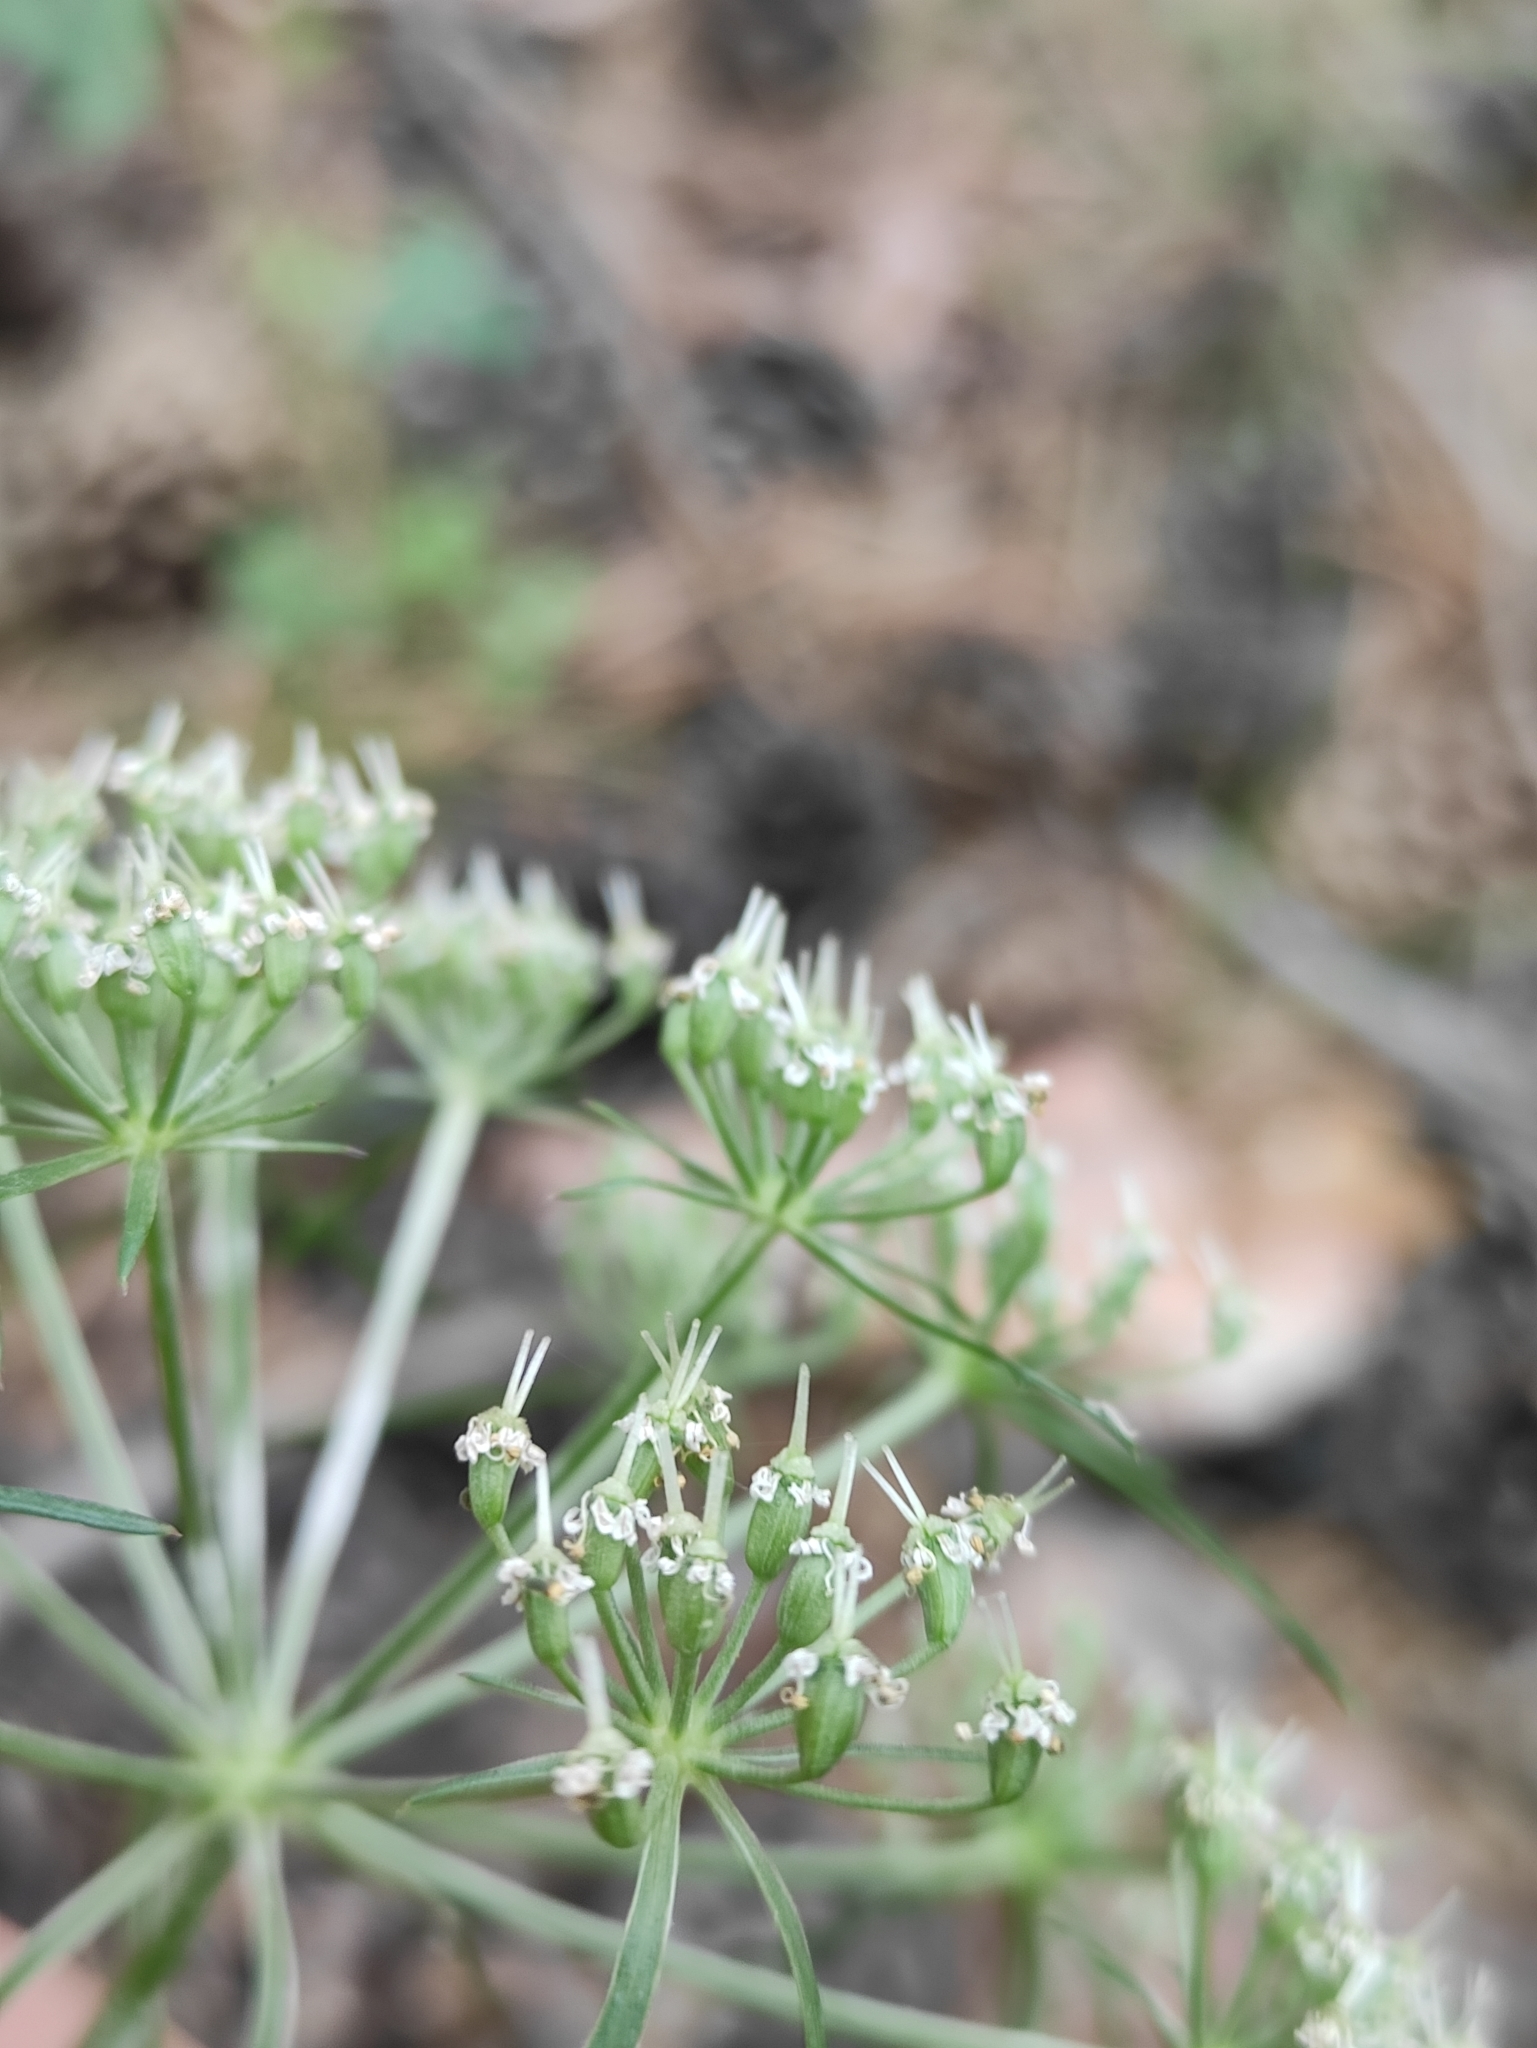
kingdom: Plantae
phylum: Tracheophyta
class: Magnoliopsida
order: Apiales
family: Apiaceae
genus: Kitagawia
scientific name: Kitagawia baicalensis
